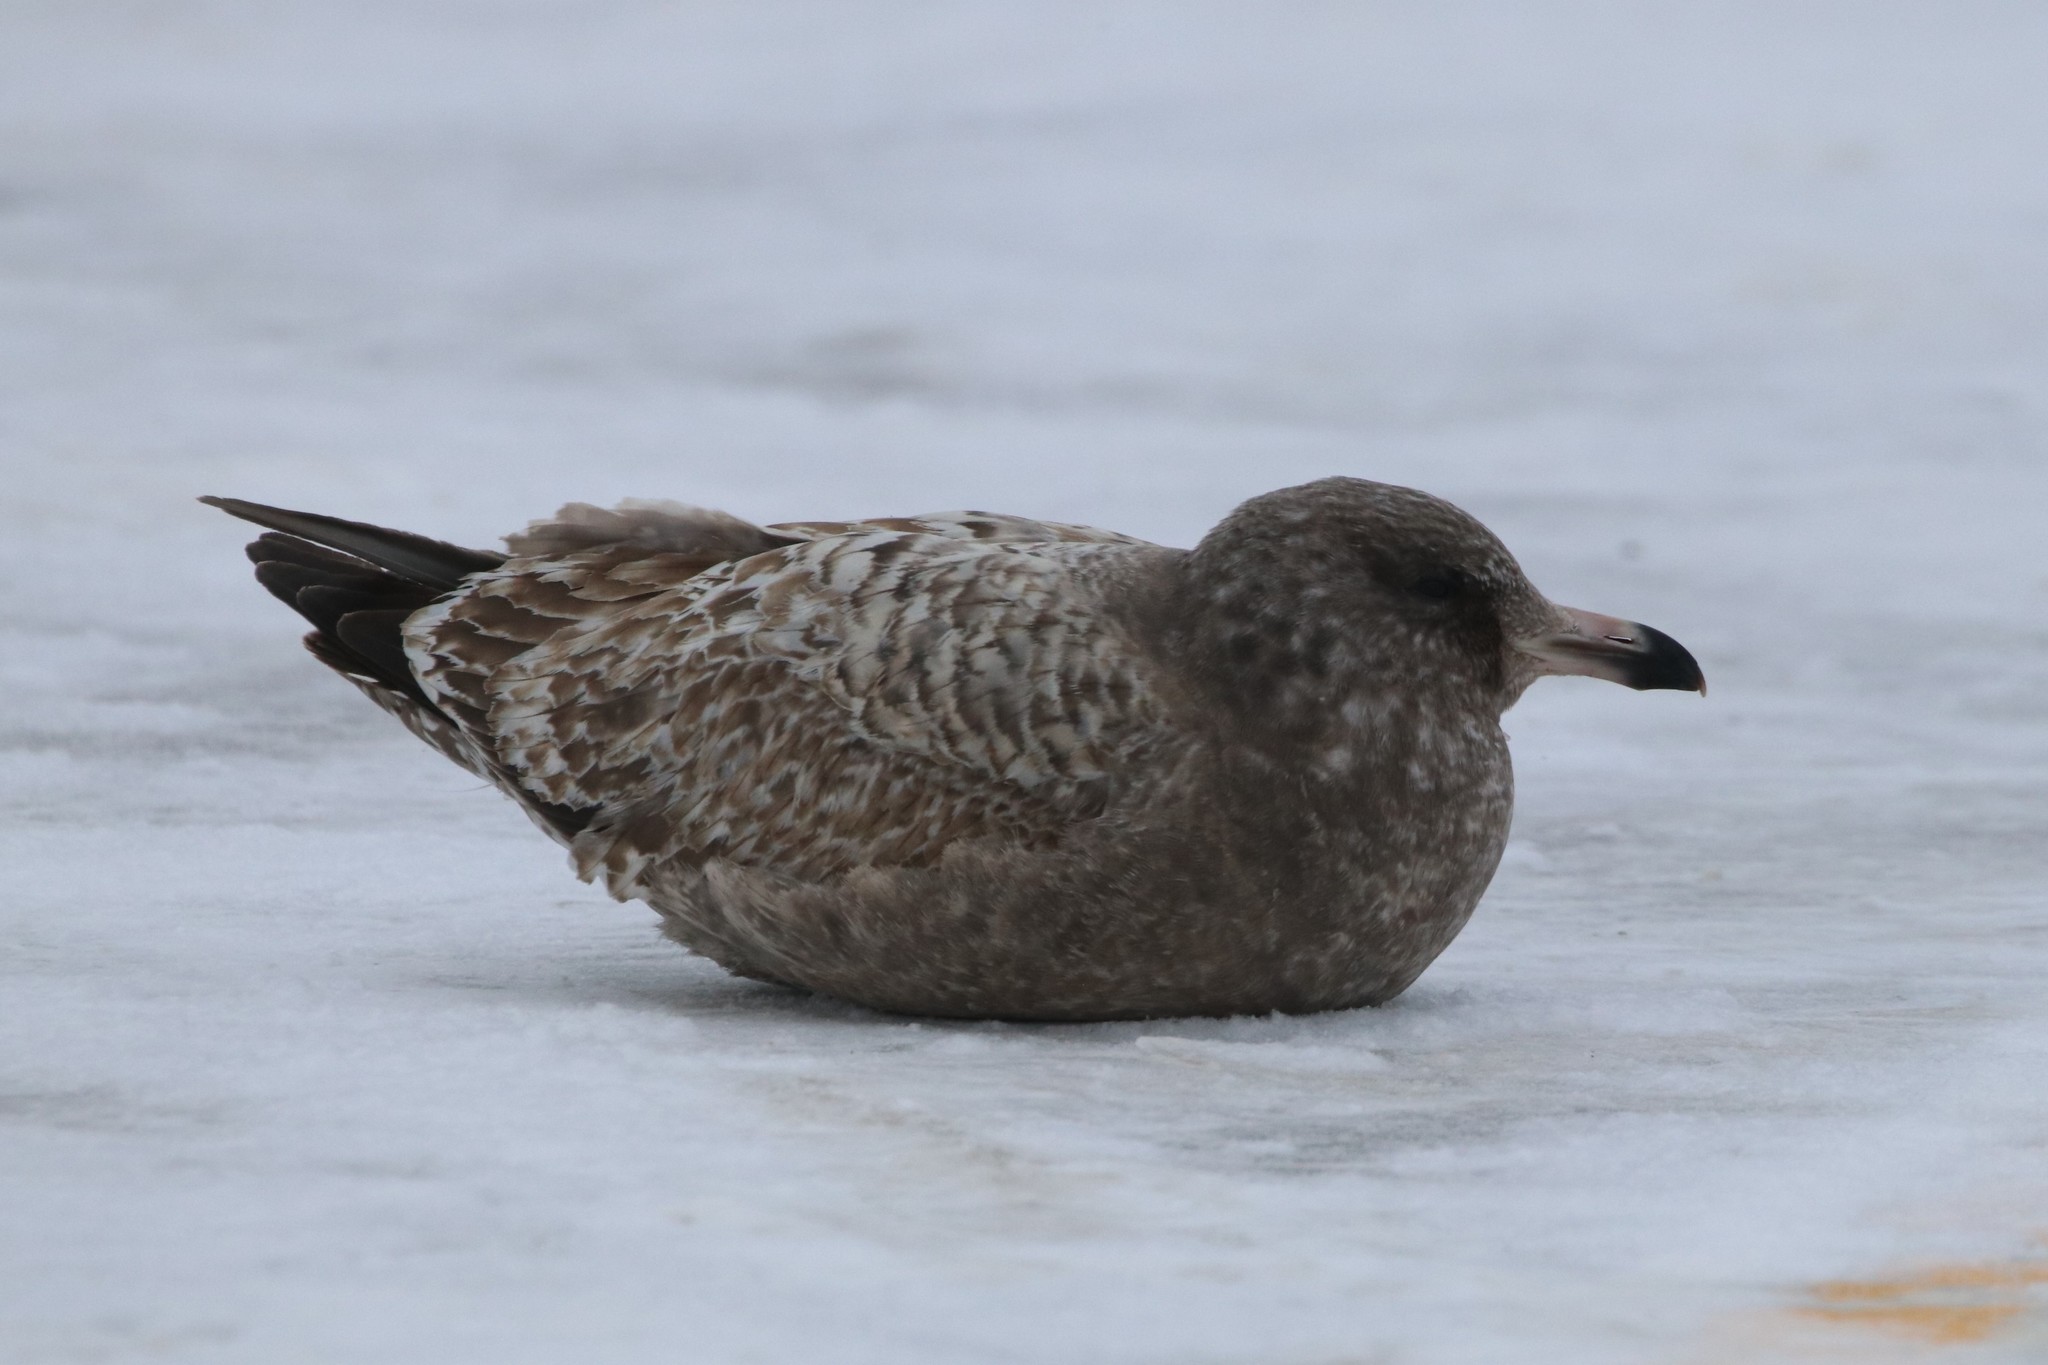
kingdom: Animalia
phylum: Chordata
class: Aves
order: Charadriiformes
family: Laridae
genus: Larus
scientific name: Larus argentatus
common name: Herring gull
